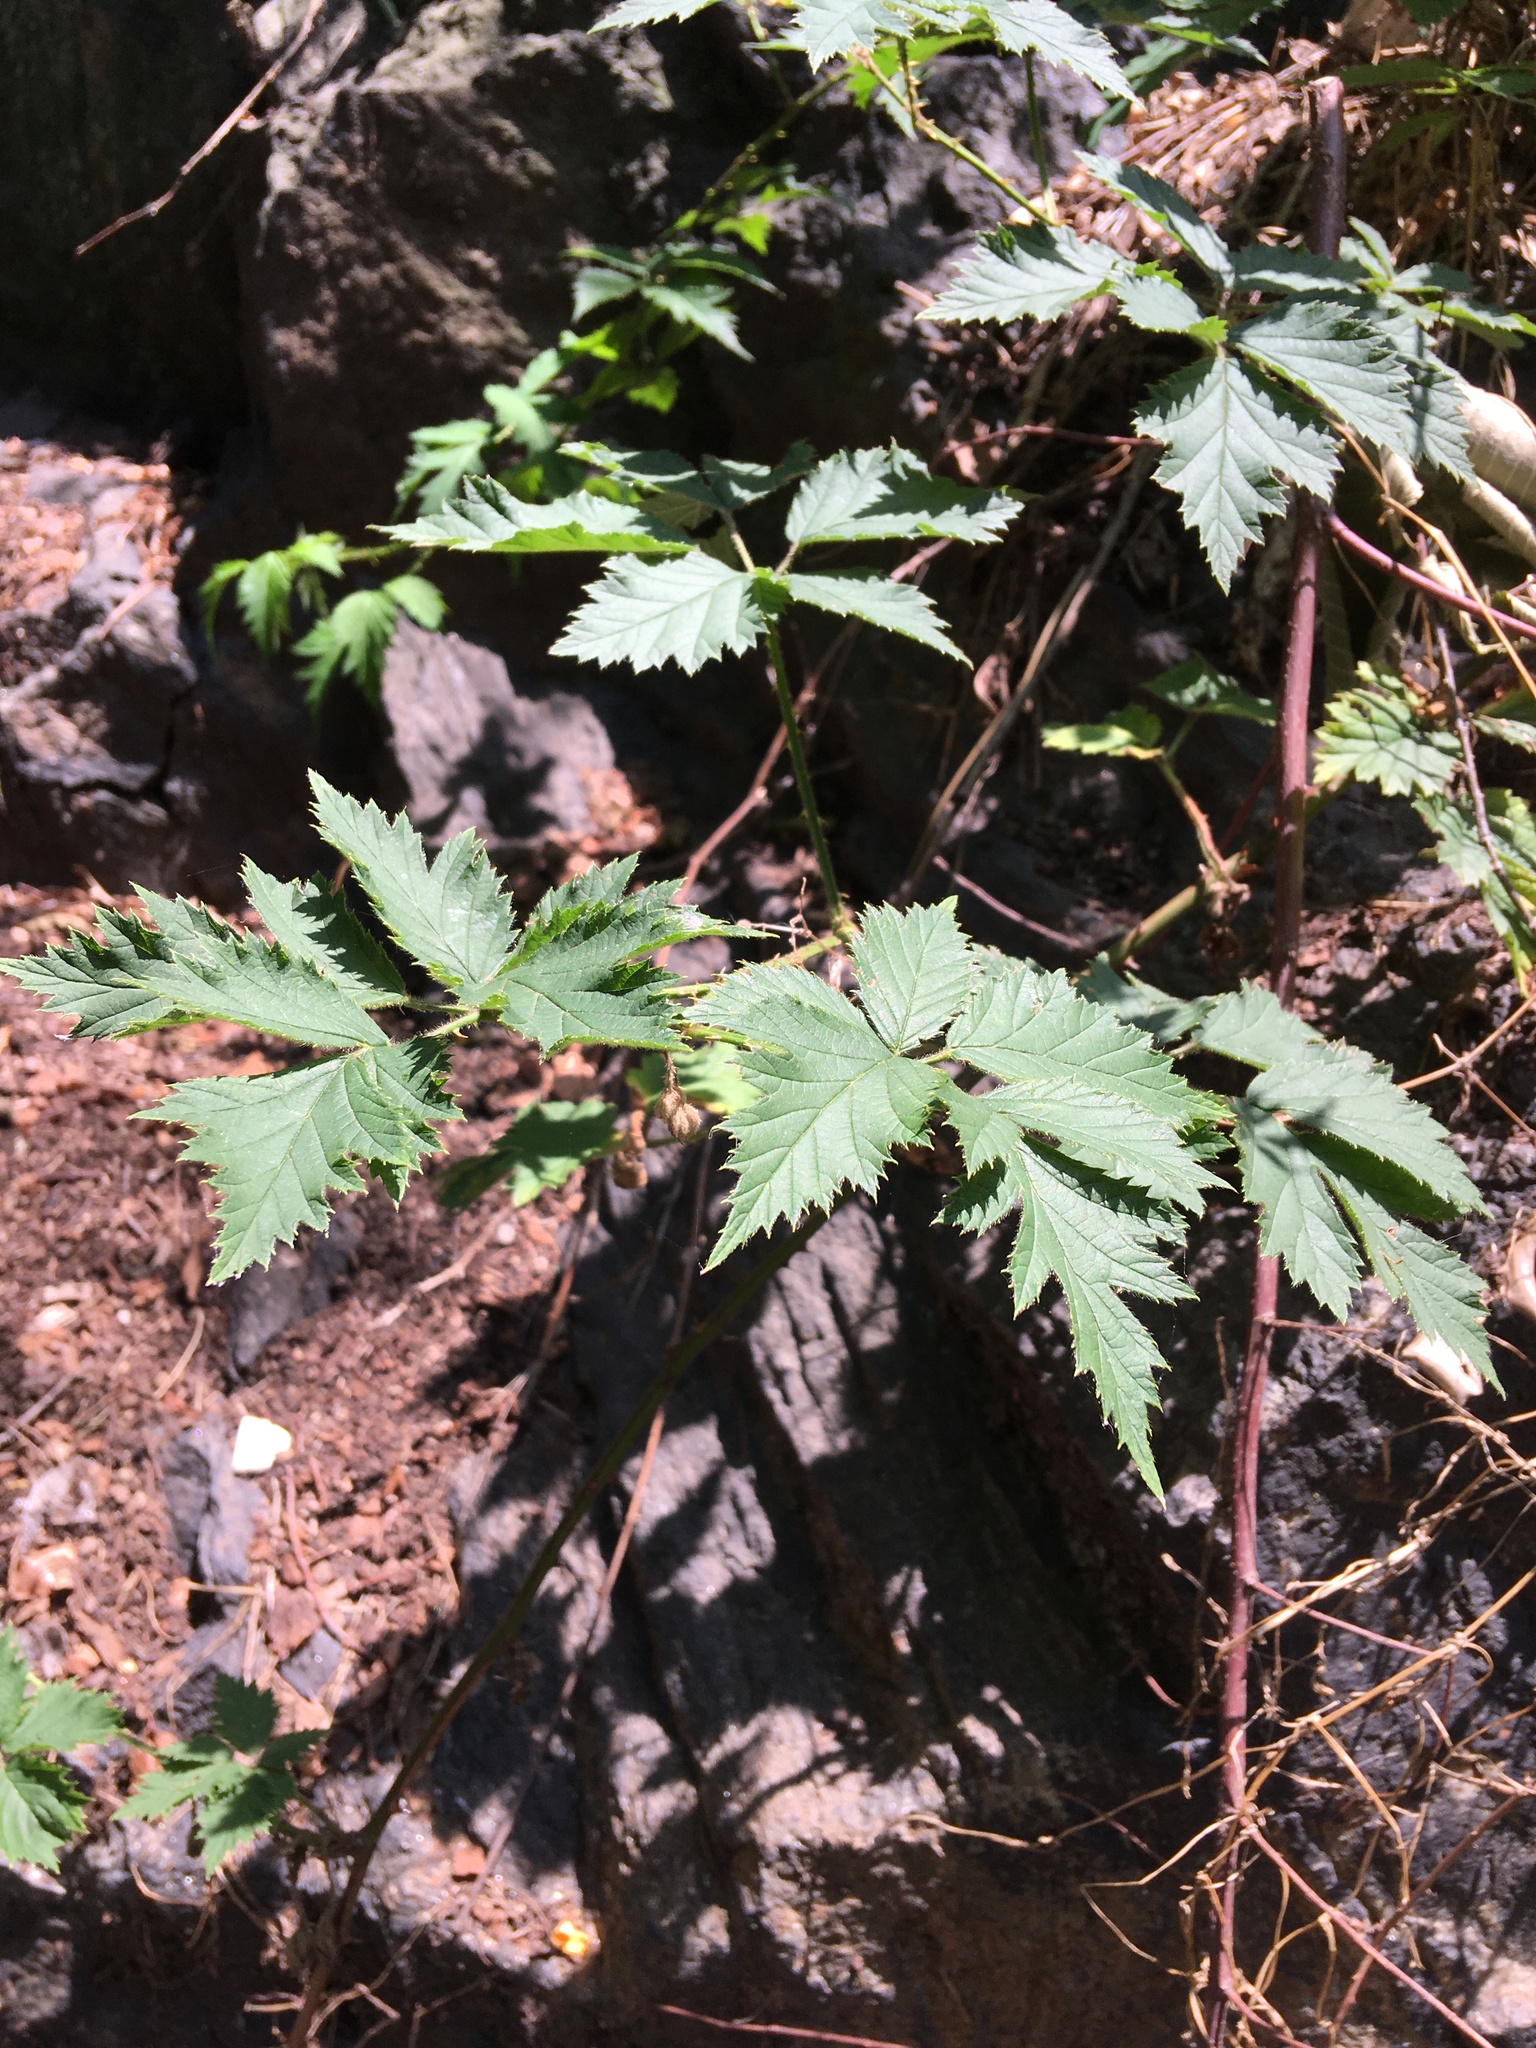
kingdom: Plantae
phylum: Tracheophyta
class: Magnoliopsida
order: Rosales
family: Rosaceae
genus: Rubus
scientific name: Rubus laciniatus
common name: Evergreen blackberry
